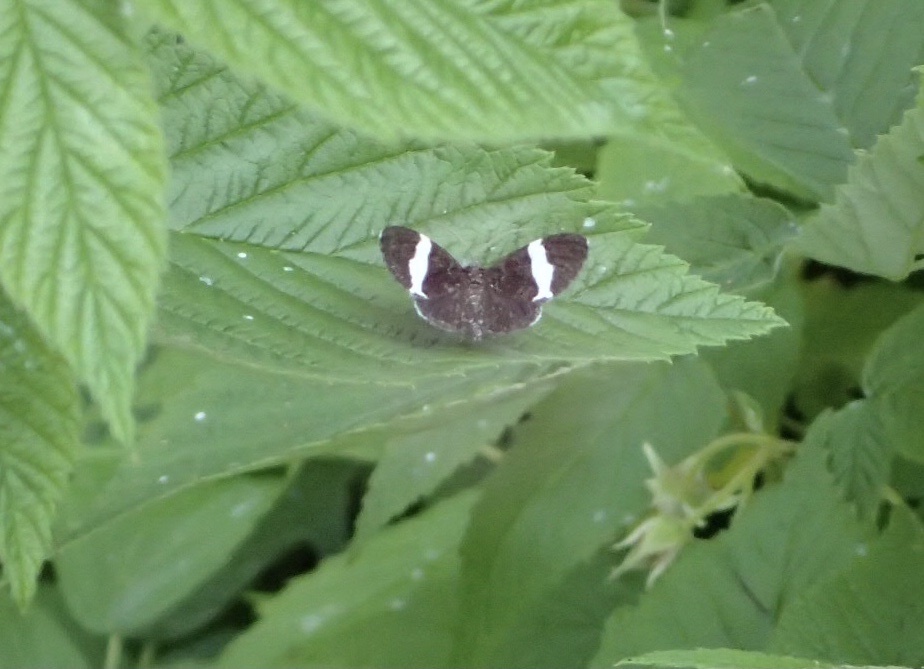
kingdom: Animalia
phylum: Arthropoda
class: Insecta
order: Lepidoptera
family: Geometridae
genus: Trichodezia
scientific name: Trichodezia albovittata
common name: White striped black
